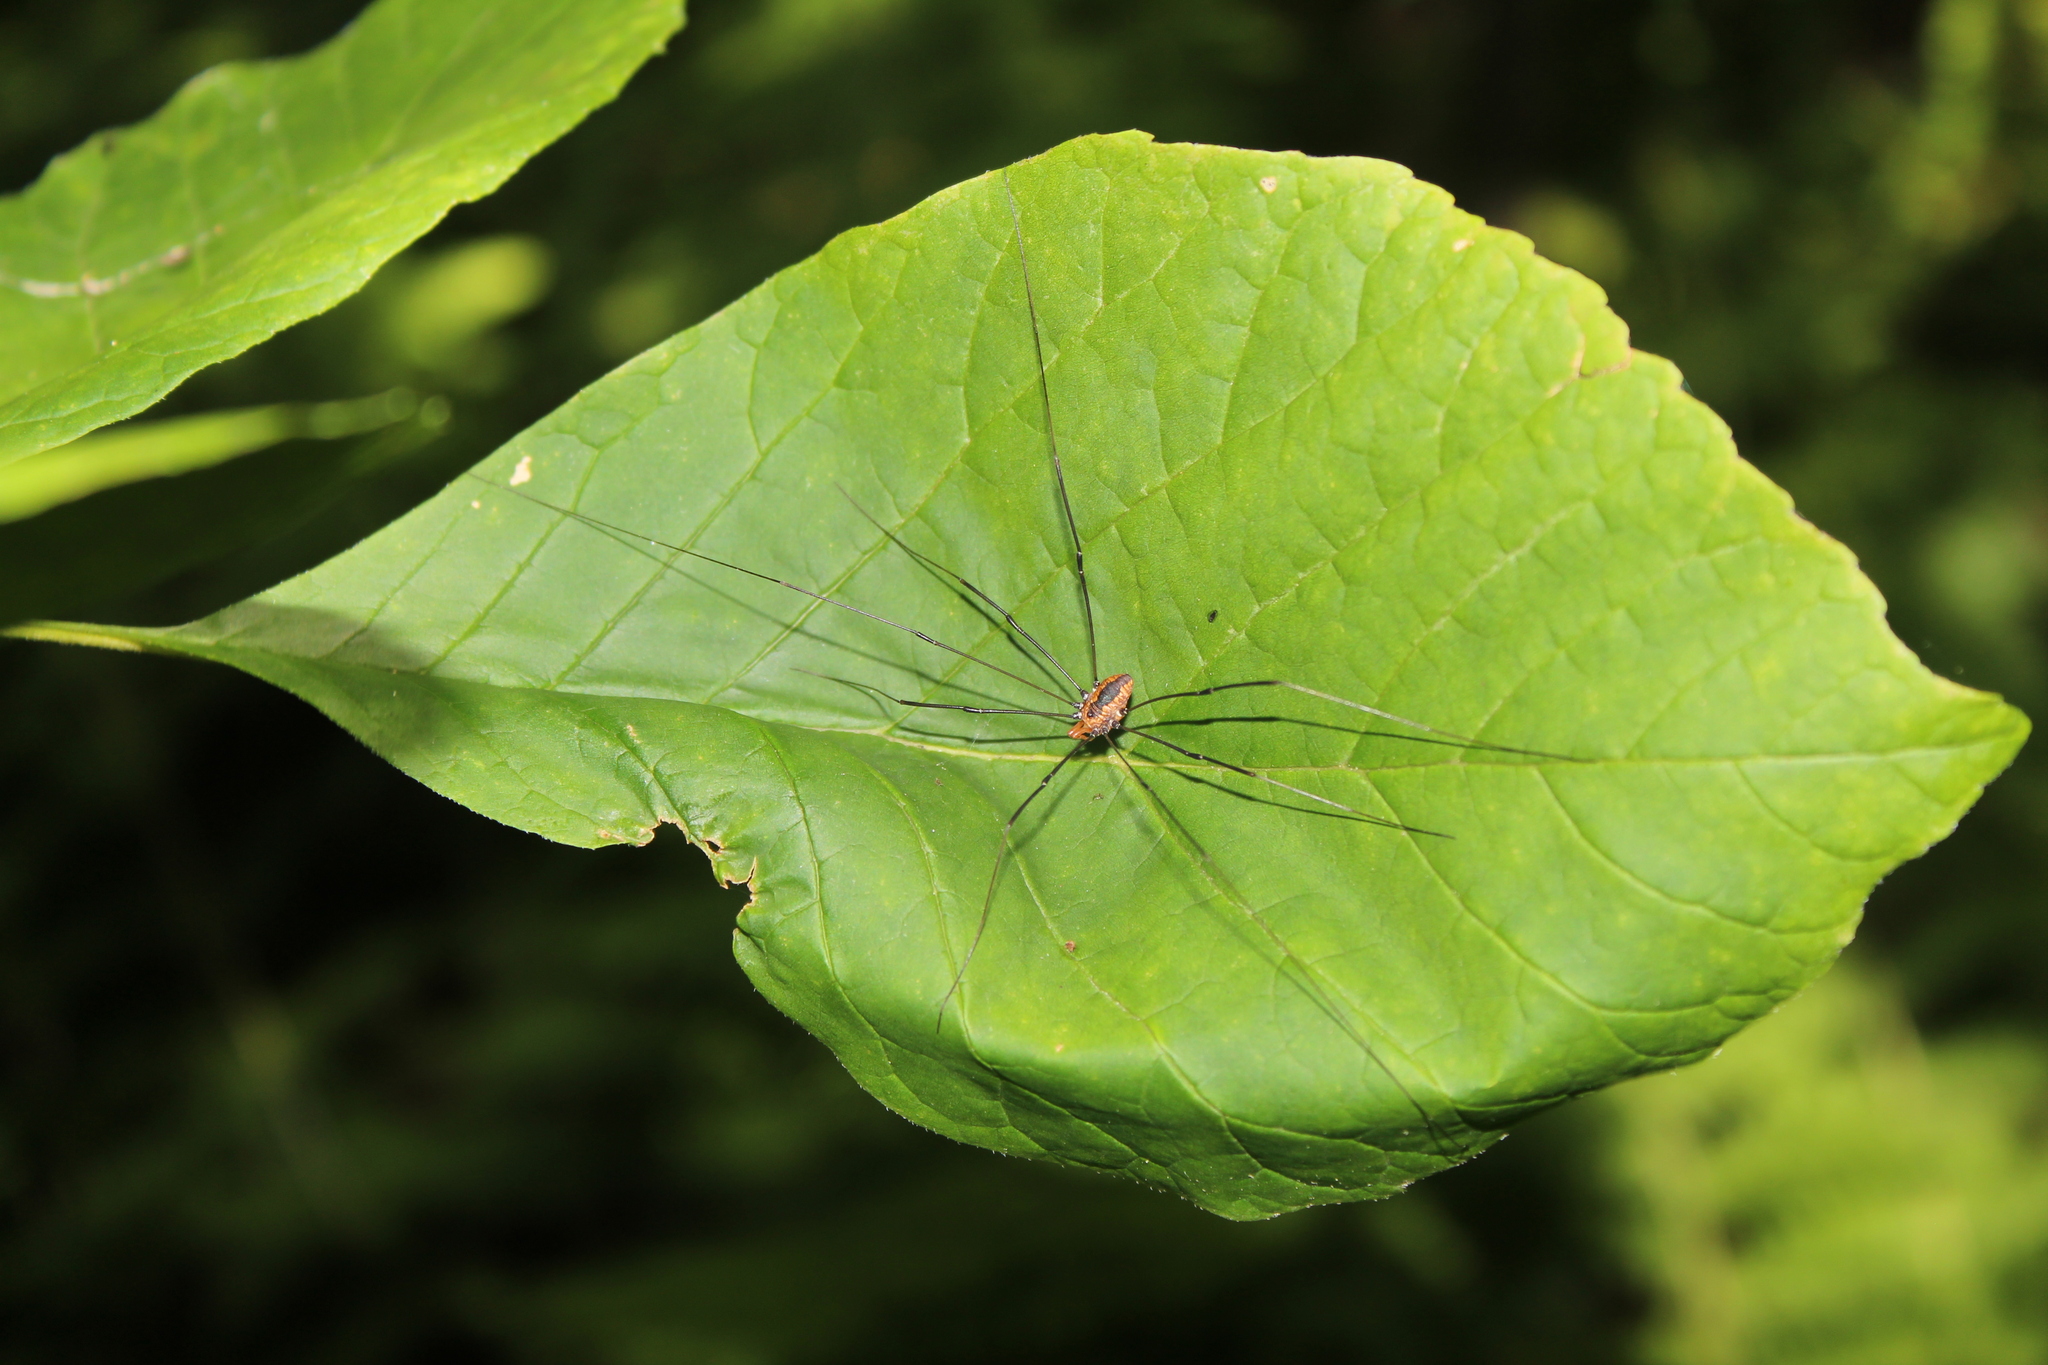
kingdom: Animalia
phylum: Arthropoda
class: Arachnida
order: Opiliones
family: Sclerosomatidae
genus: Leiobunum
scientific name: Leiobunum vittatum
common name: Eastern harvestman
